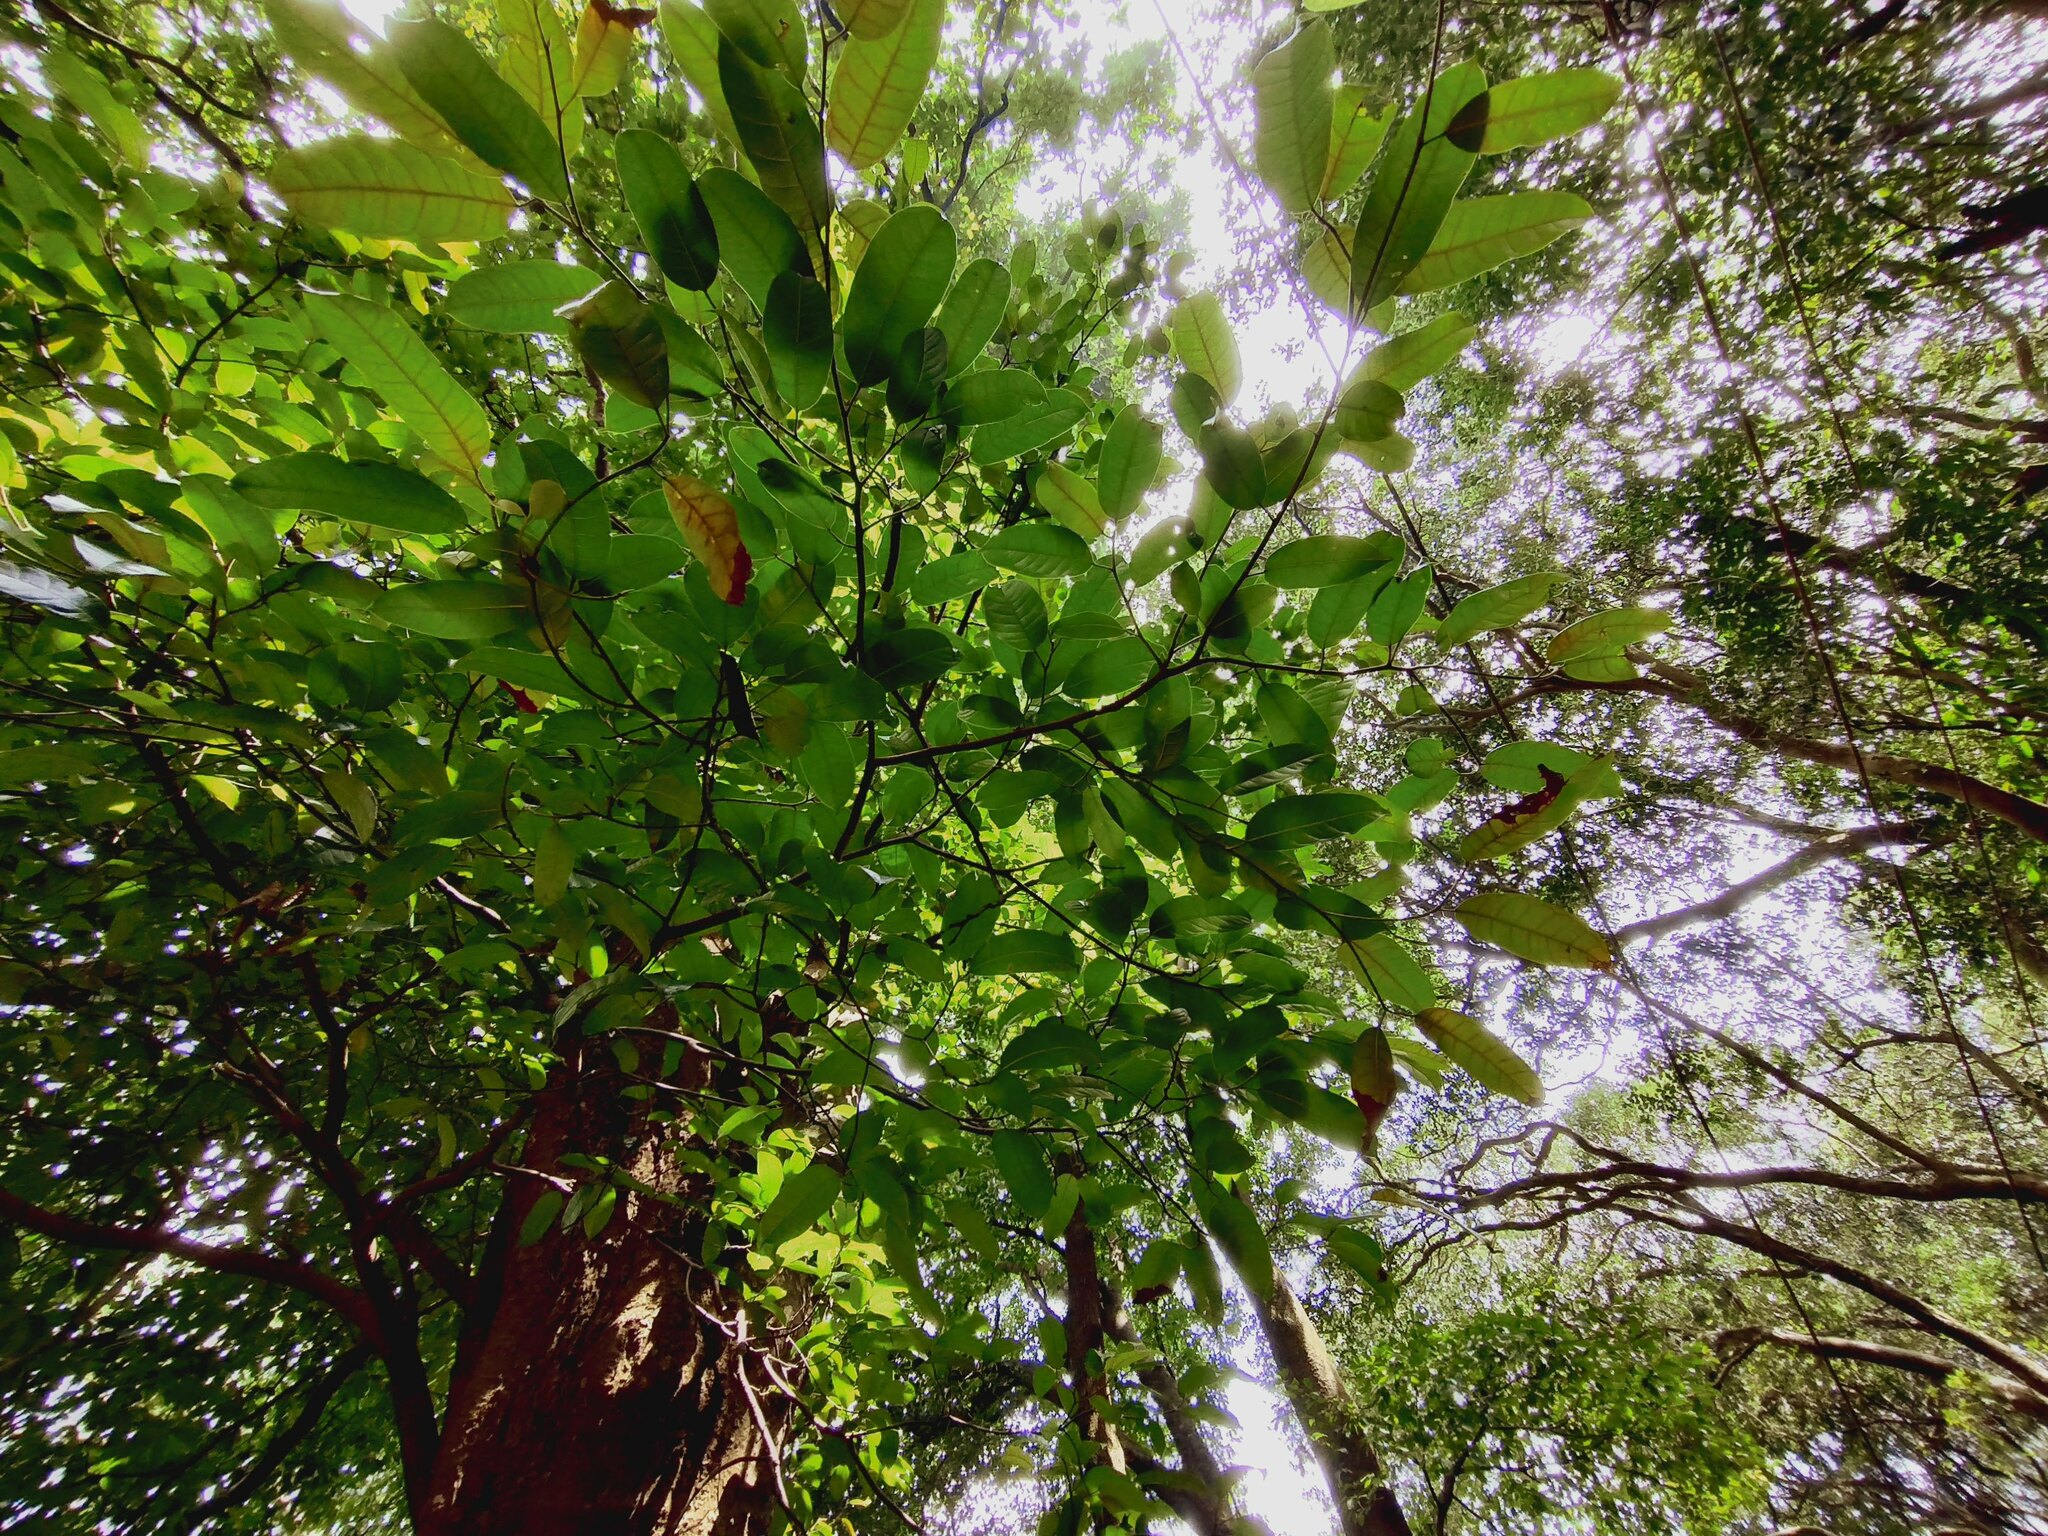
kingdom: Plantae
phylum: Tracheophyta
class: Magnoliopsida
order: Rosales
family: Moraceae
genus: Ficus
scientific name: Ficus nervosa
